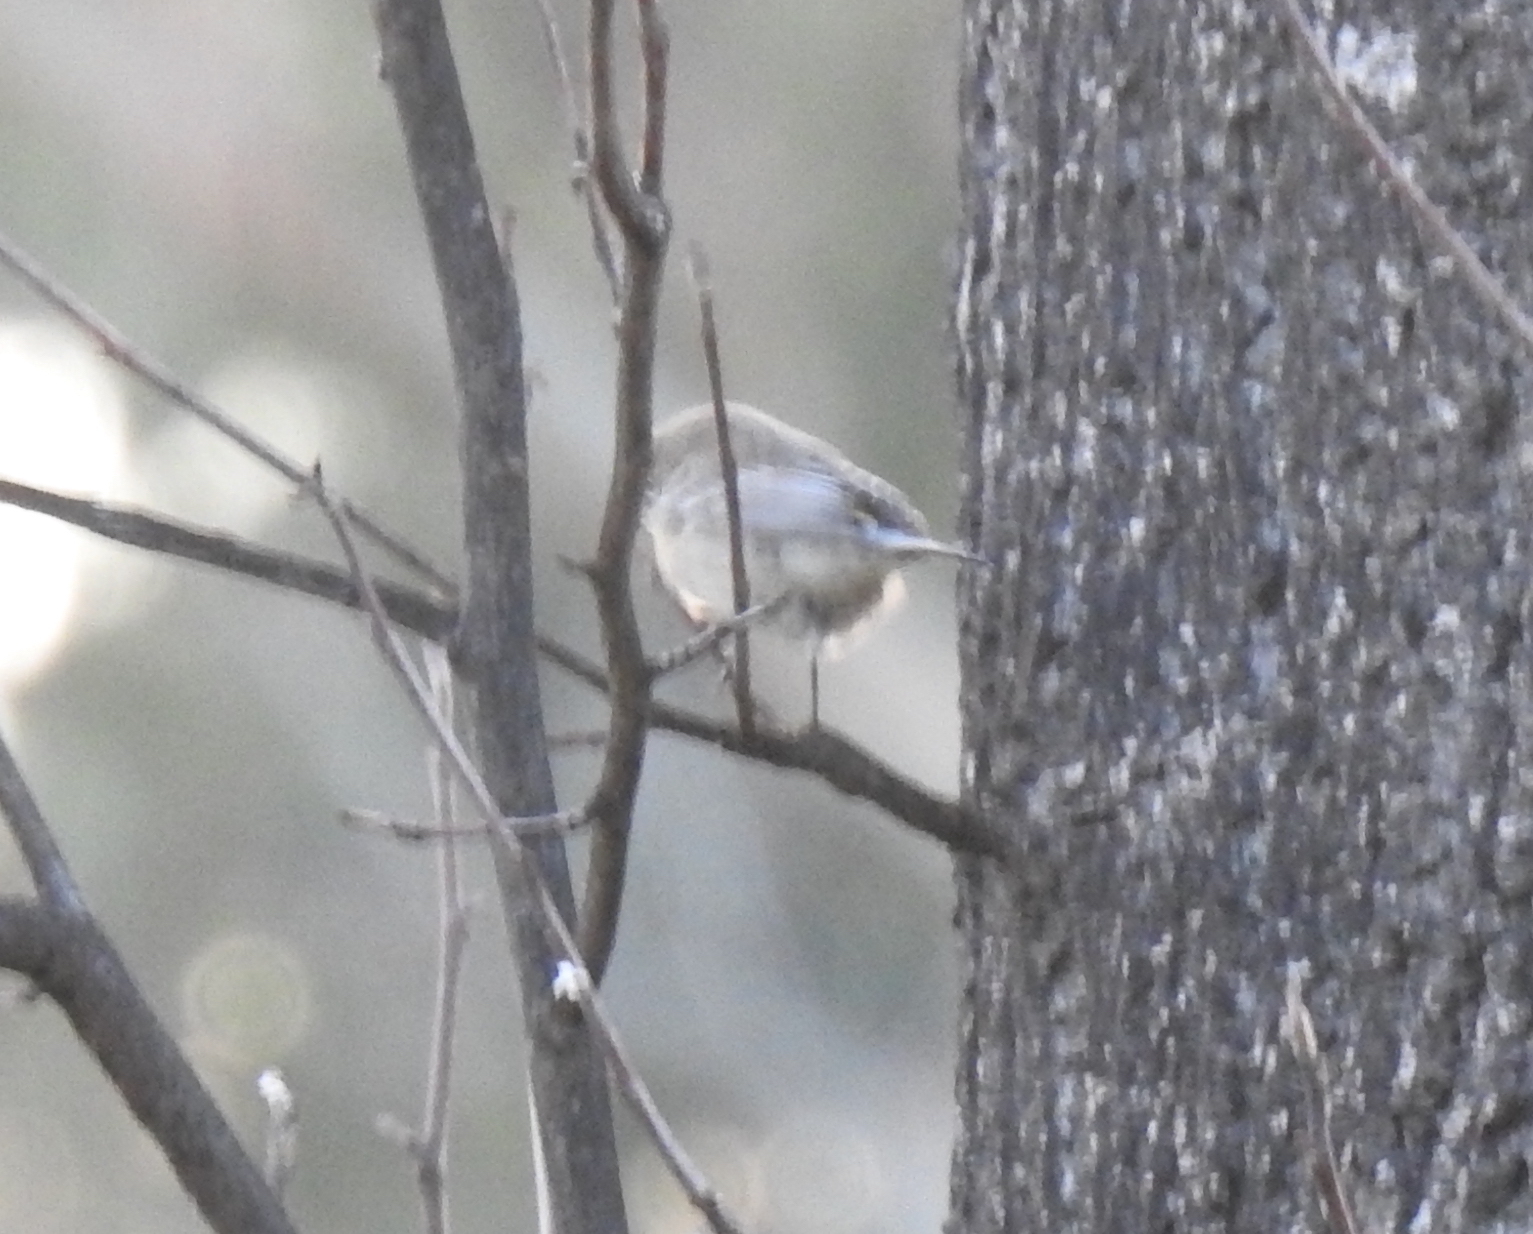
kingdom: Animalia
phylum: Chordata
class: Aves
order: Passeriformes
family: Aegithalidae
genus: Psaltriparus
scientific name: Psaltriparus minimus
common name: American bushtit
